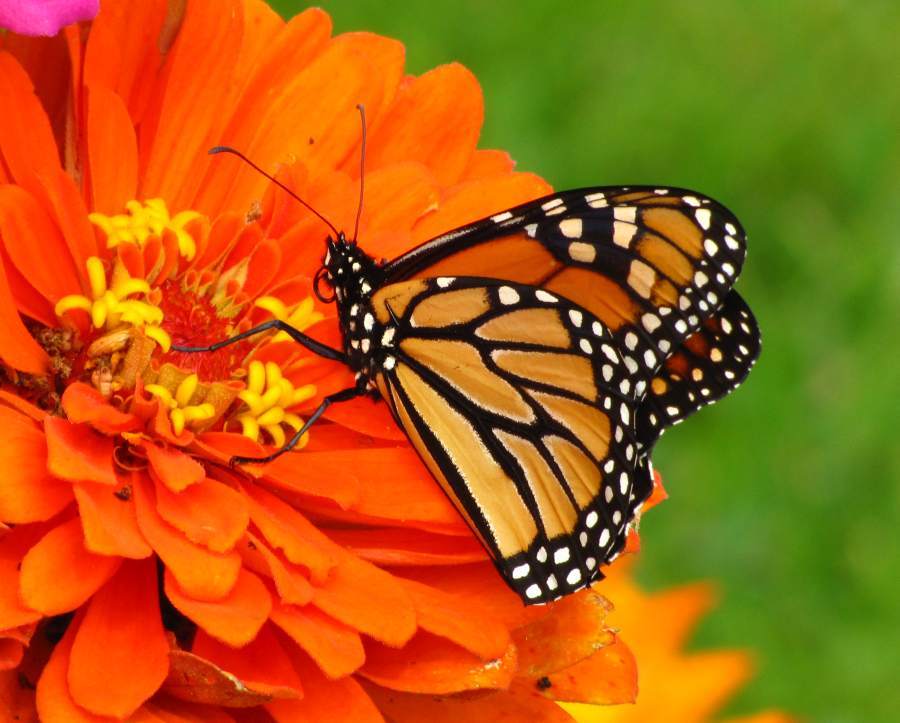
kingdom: Animalia
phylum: Arthropoda
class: Insecta
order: Lepidoptera
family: Nymphalidae
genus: Danaus
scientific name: Danaus plexippus
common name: Monarch
